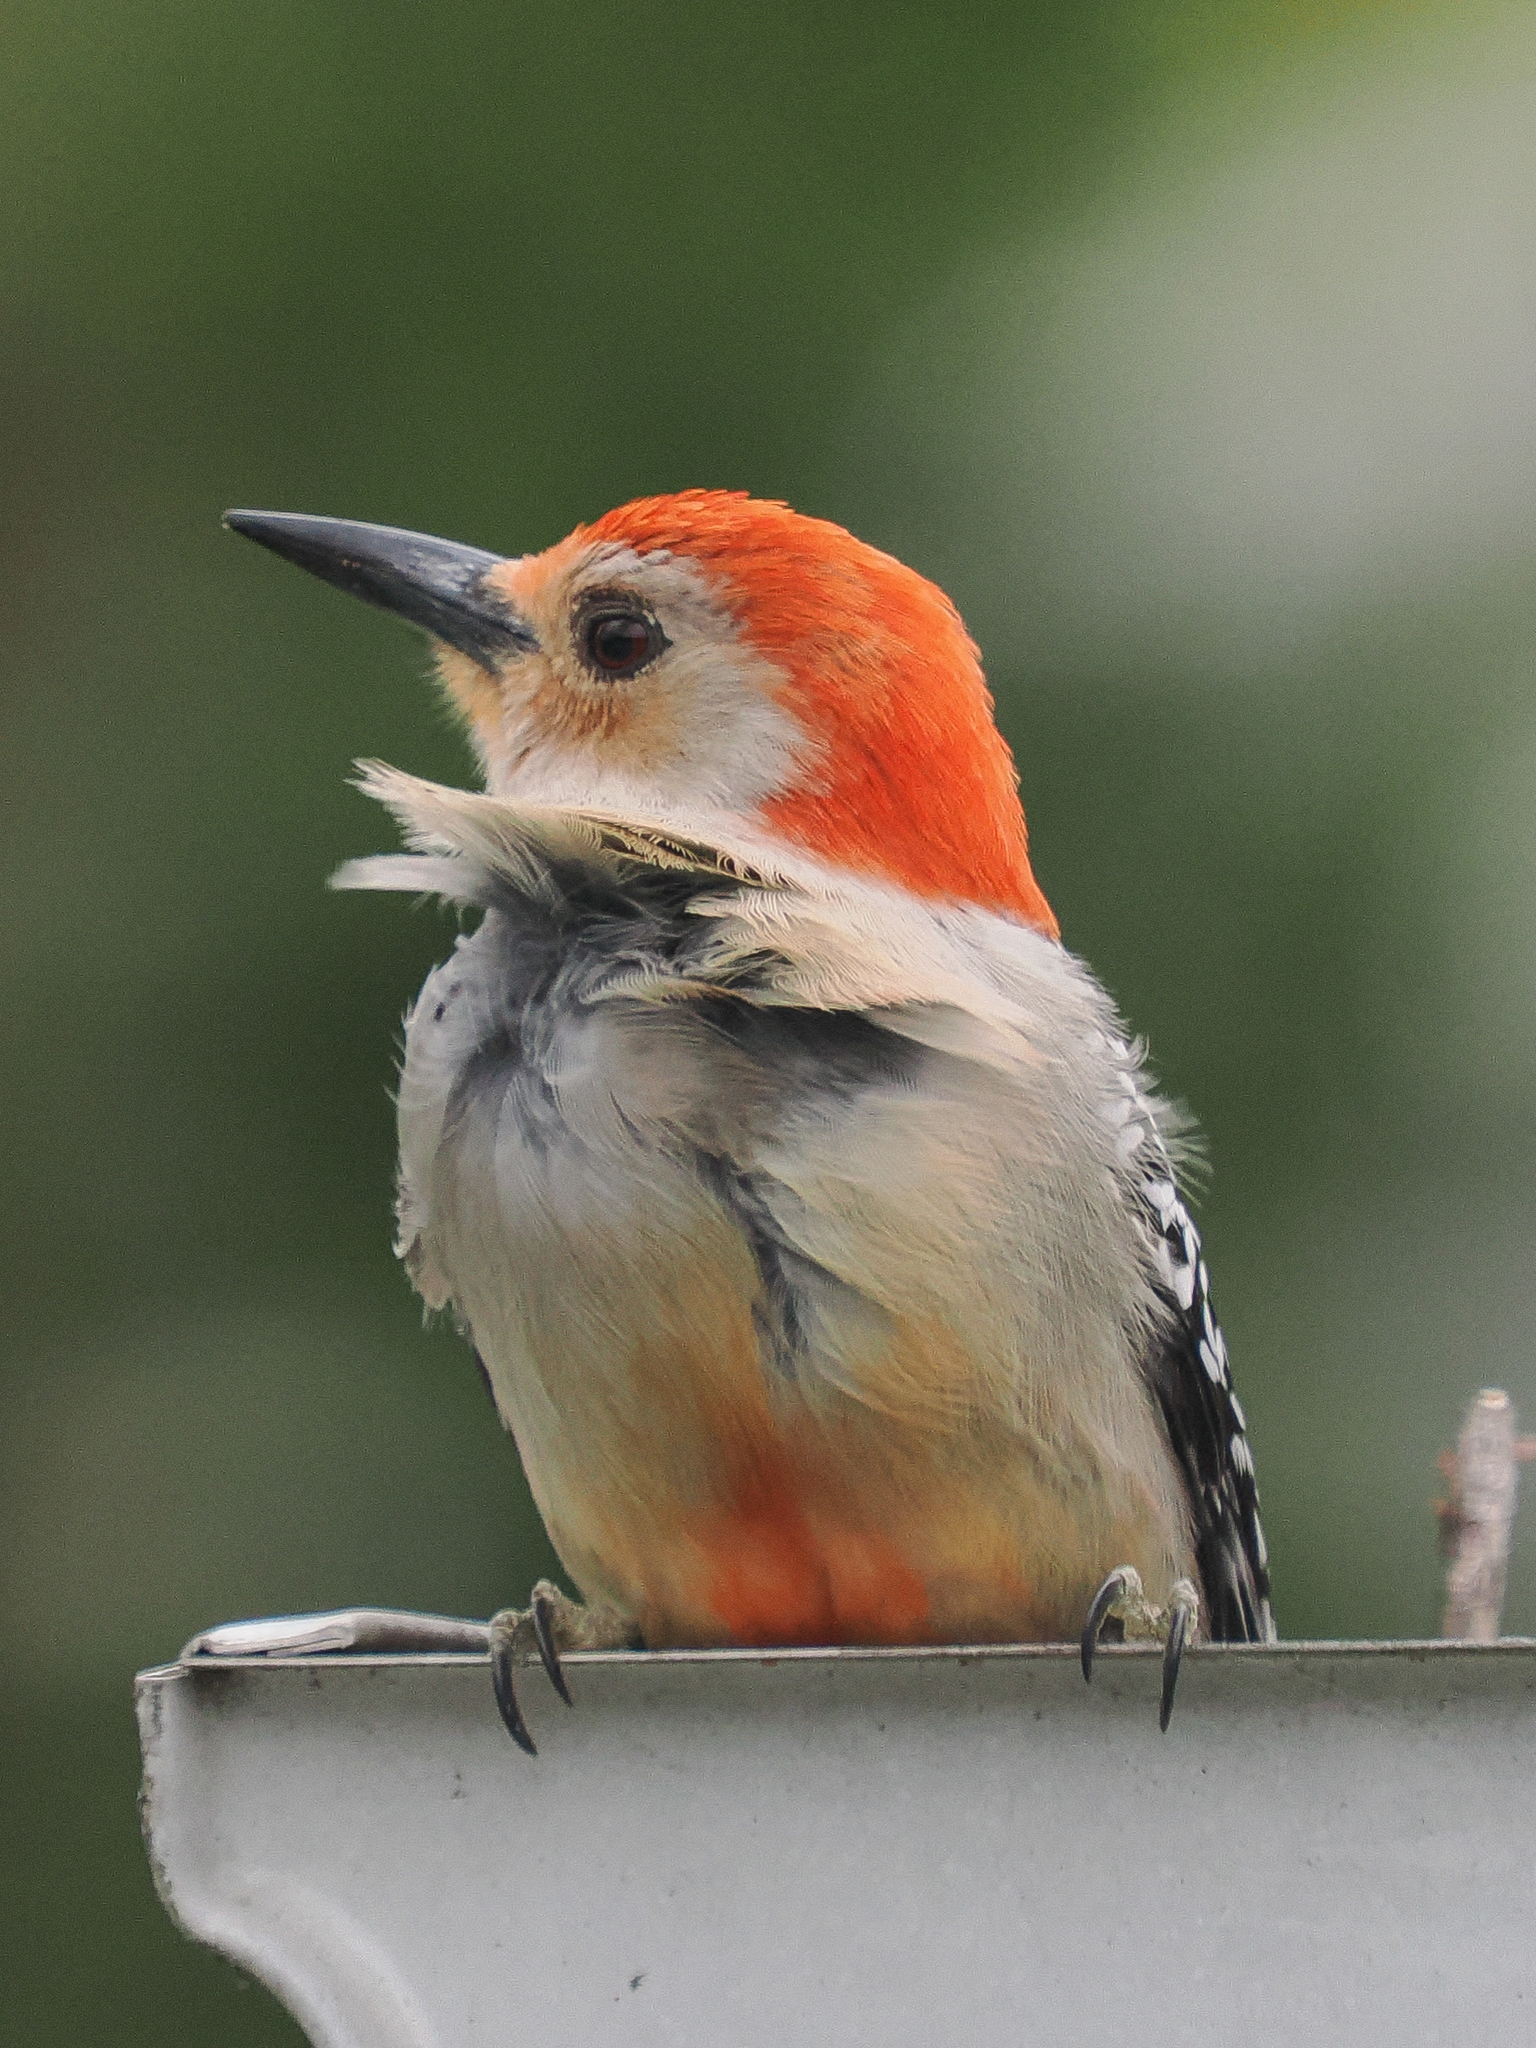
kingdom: Animalia
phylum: Chordata
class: Aves
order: Piciformes
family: Picidae
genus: Melanerpes
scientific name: Melanerpes carolinus
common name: Red-bellied woodpecker
